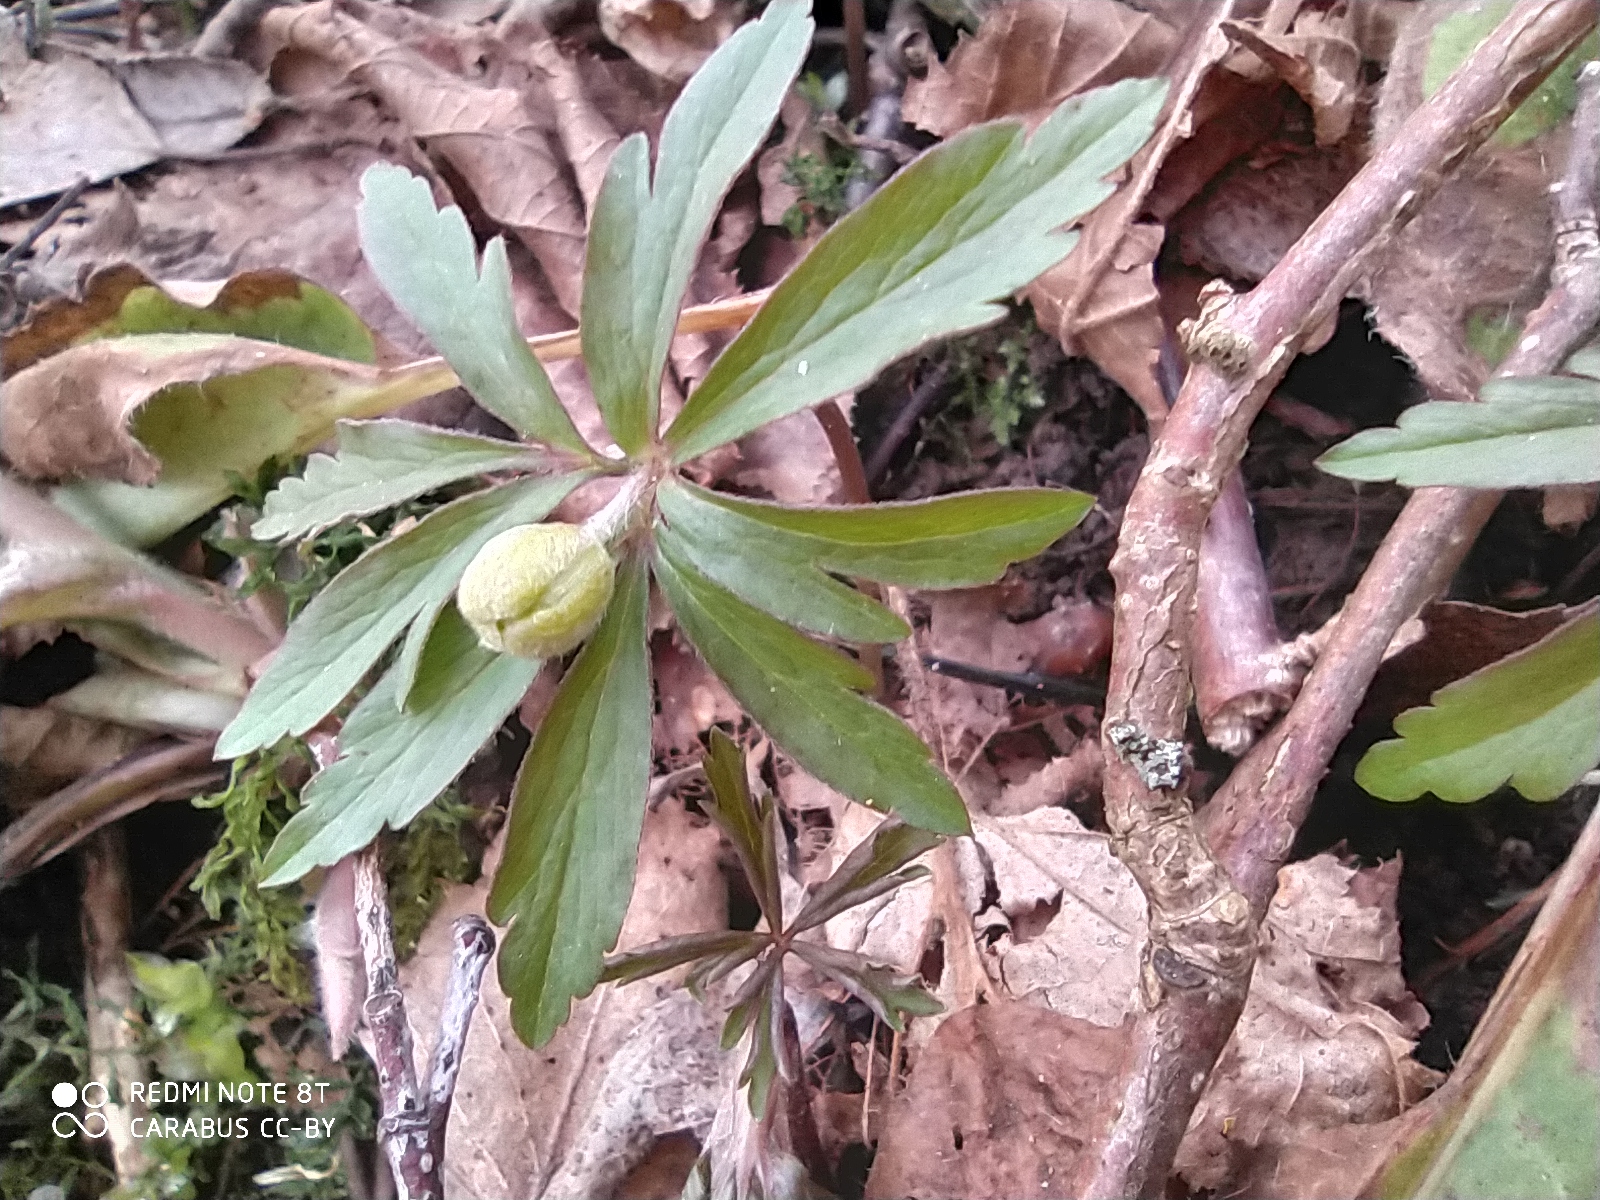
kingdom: Plantae
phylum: Tracheophyta
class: Magnoliopsida
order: Ranunculales
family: Ranunculaceae
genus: Anemone
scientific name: Anemone ranunculoides
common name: Yellow anemone
